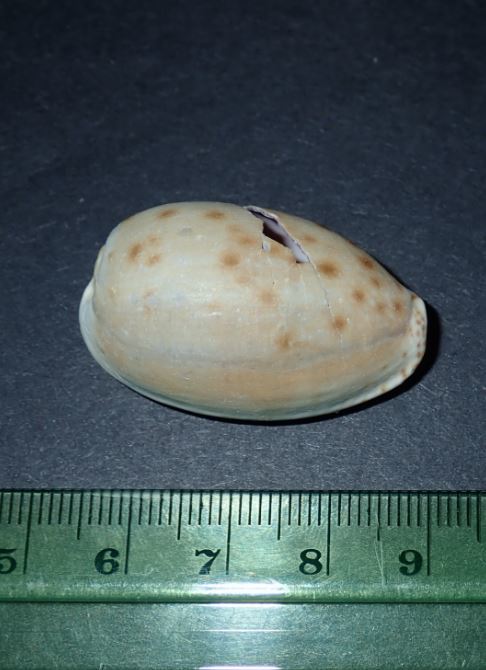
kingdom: Animalia
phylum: Mollusca
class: Gastropoda
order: Littorinimorpha
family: Cypraeidae
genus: Naria
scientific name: Naria erosa
